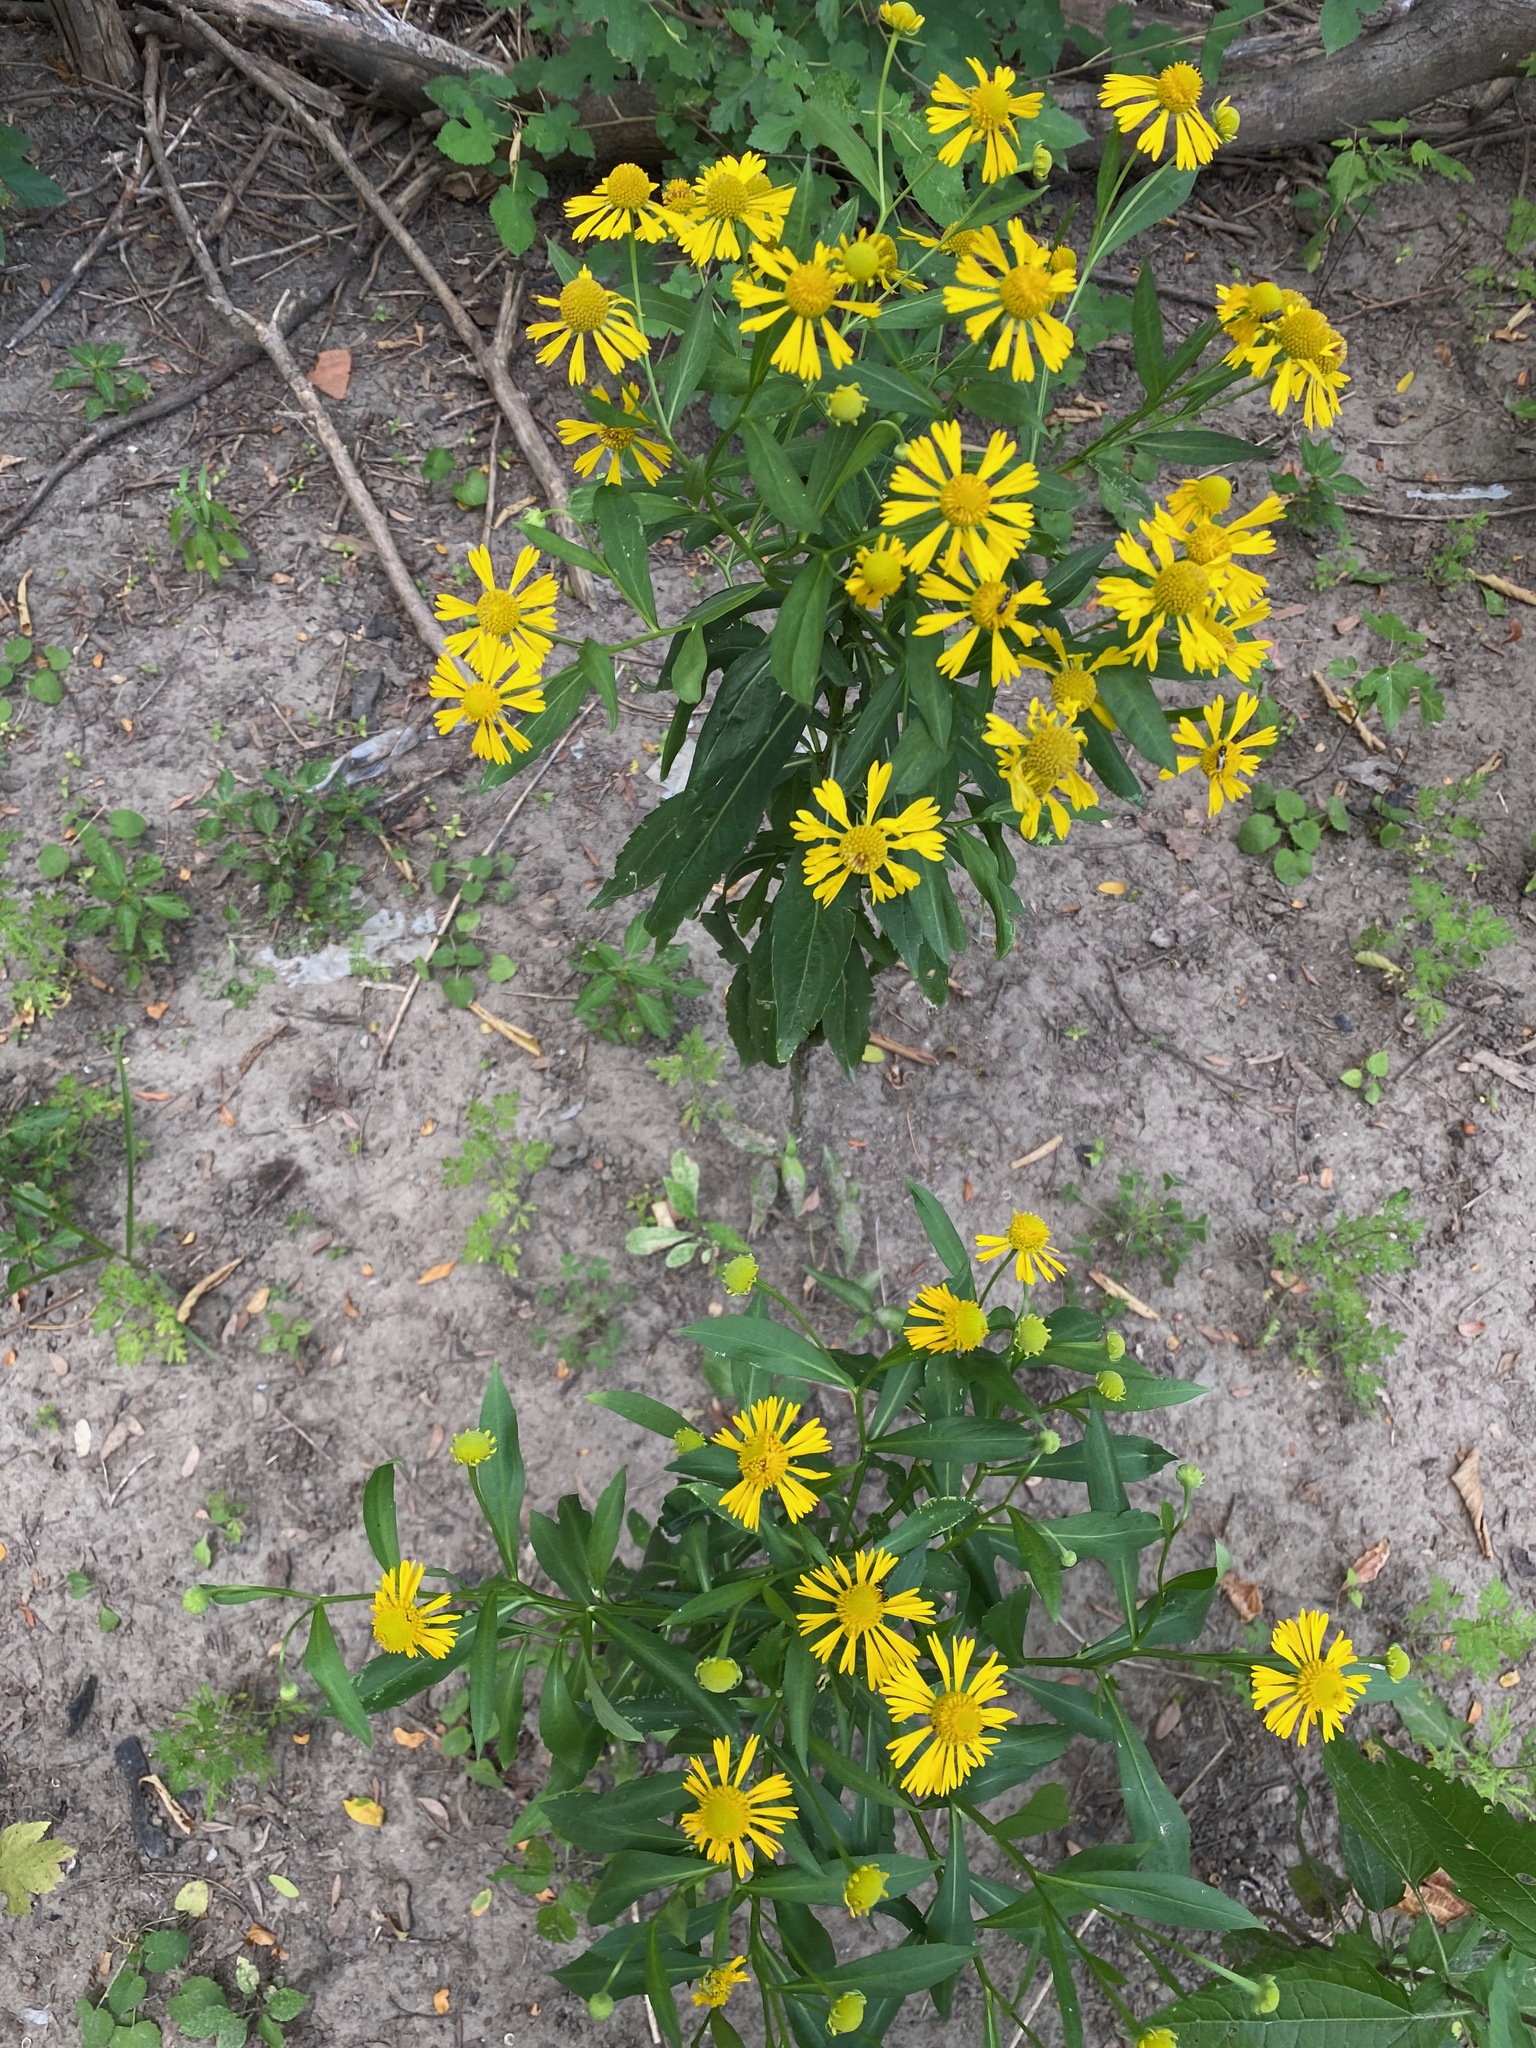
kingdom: Plantae
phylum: Tracheophyta
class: Magnoliopsida
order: Asterales
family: Asteraceae
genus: Helenium
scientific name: Helenium autumnale
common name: Sneezeweed
